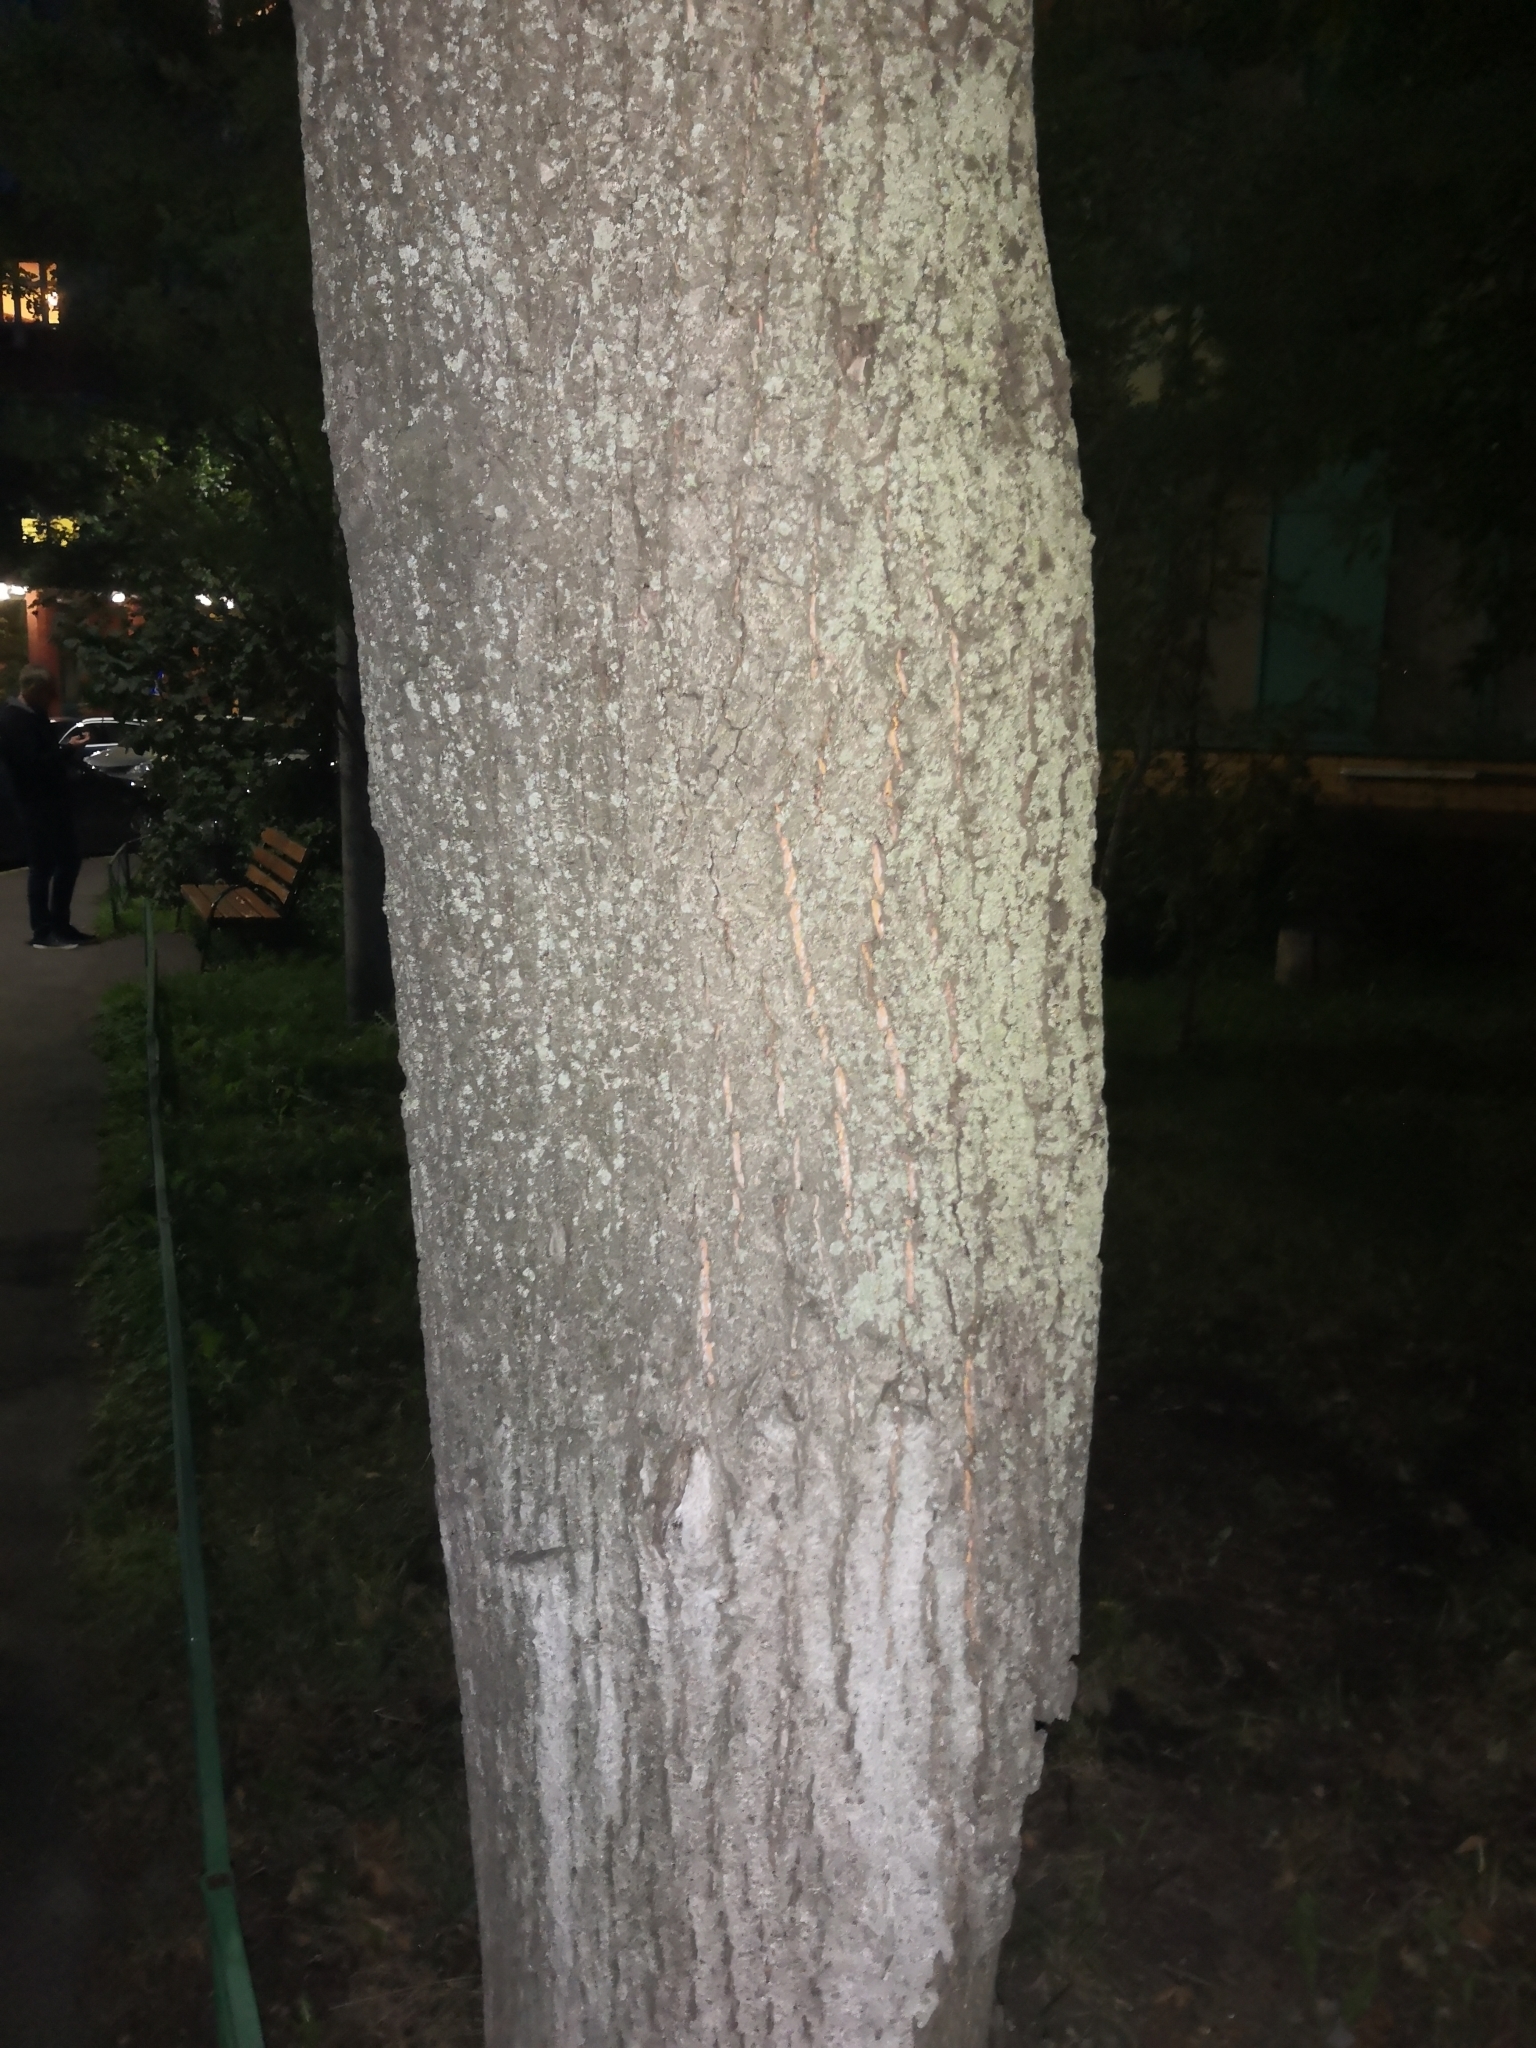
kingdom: Plantae
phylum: Tracheophyta
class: Magnoliopsida
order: Malvales
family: Malvaceae
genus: Tilia
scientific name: Tilia cordata
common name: Small-leaved lime
